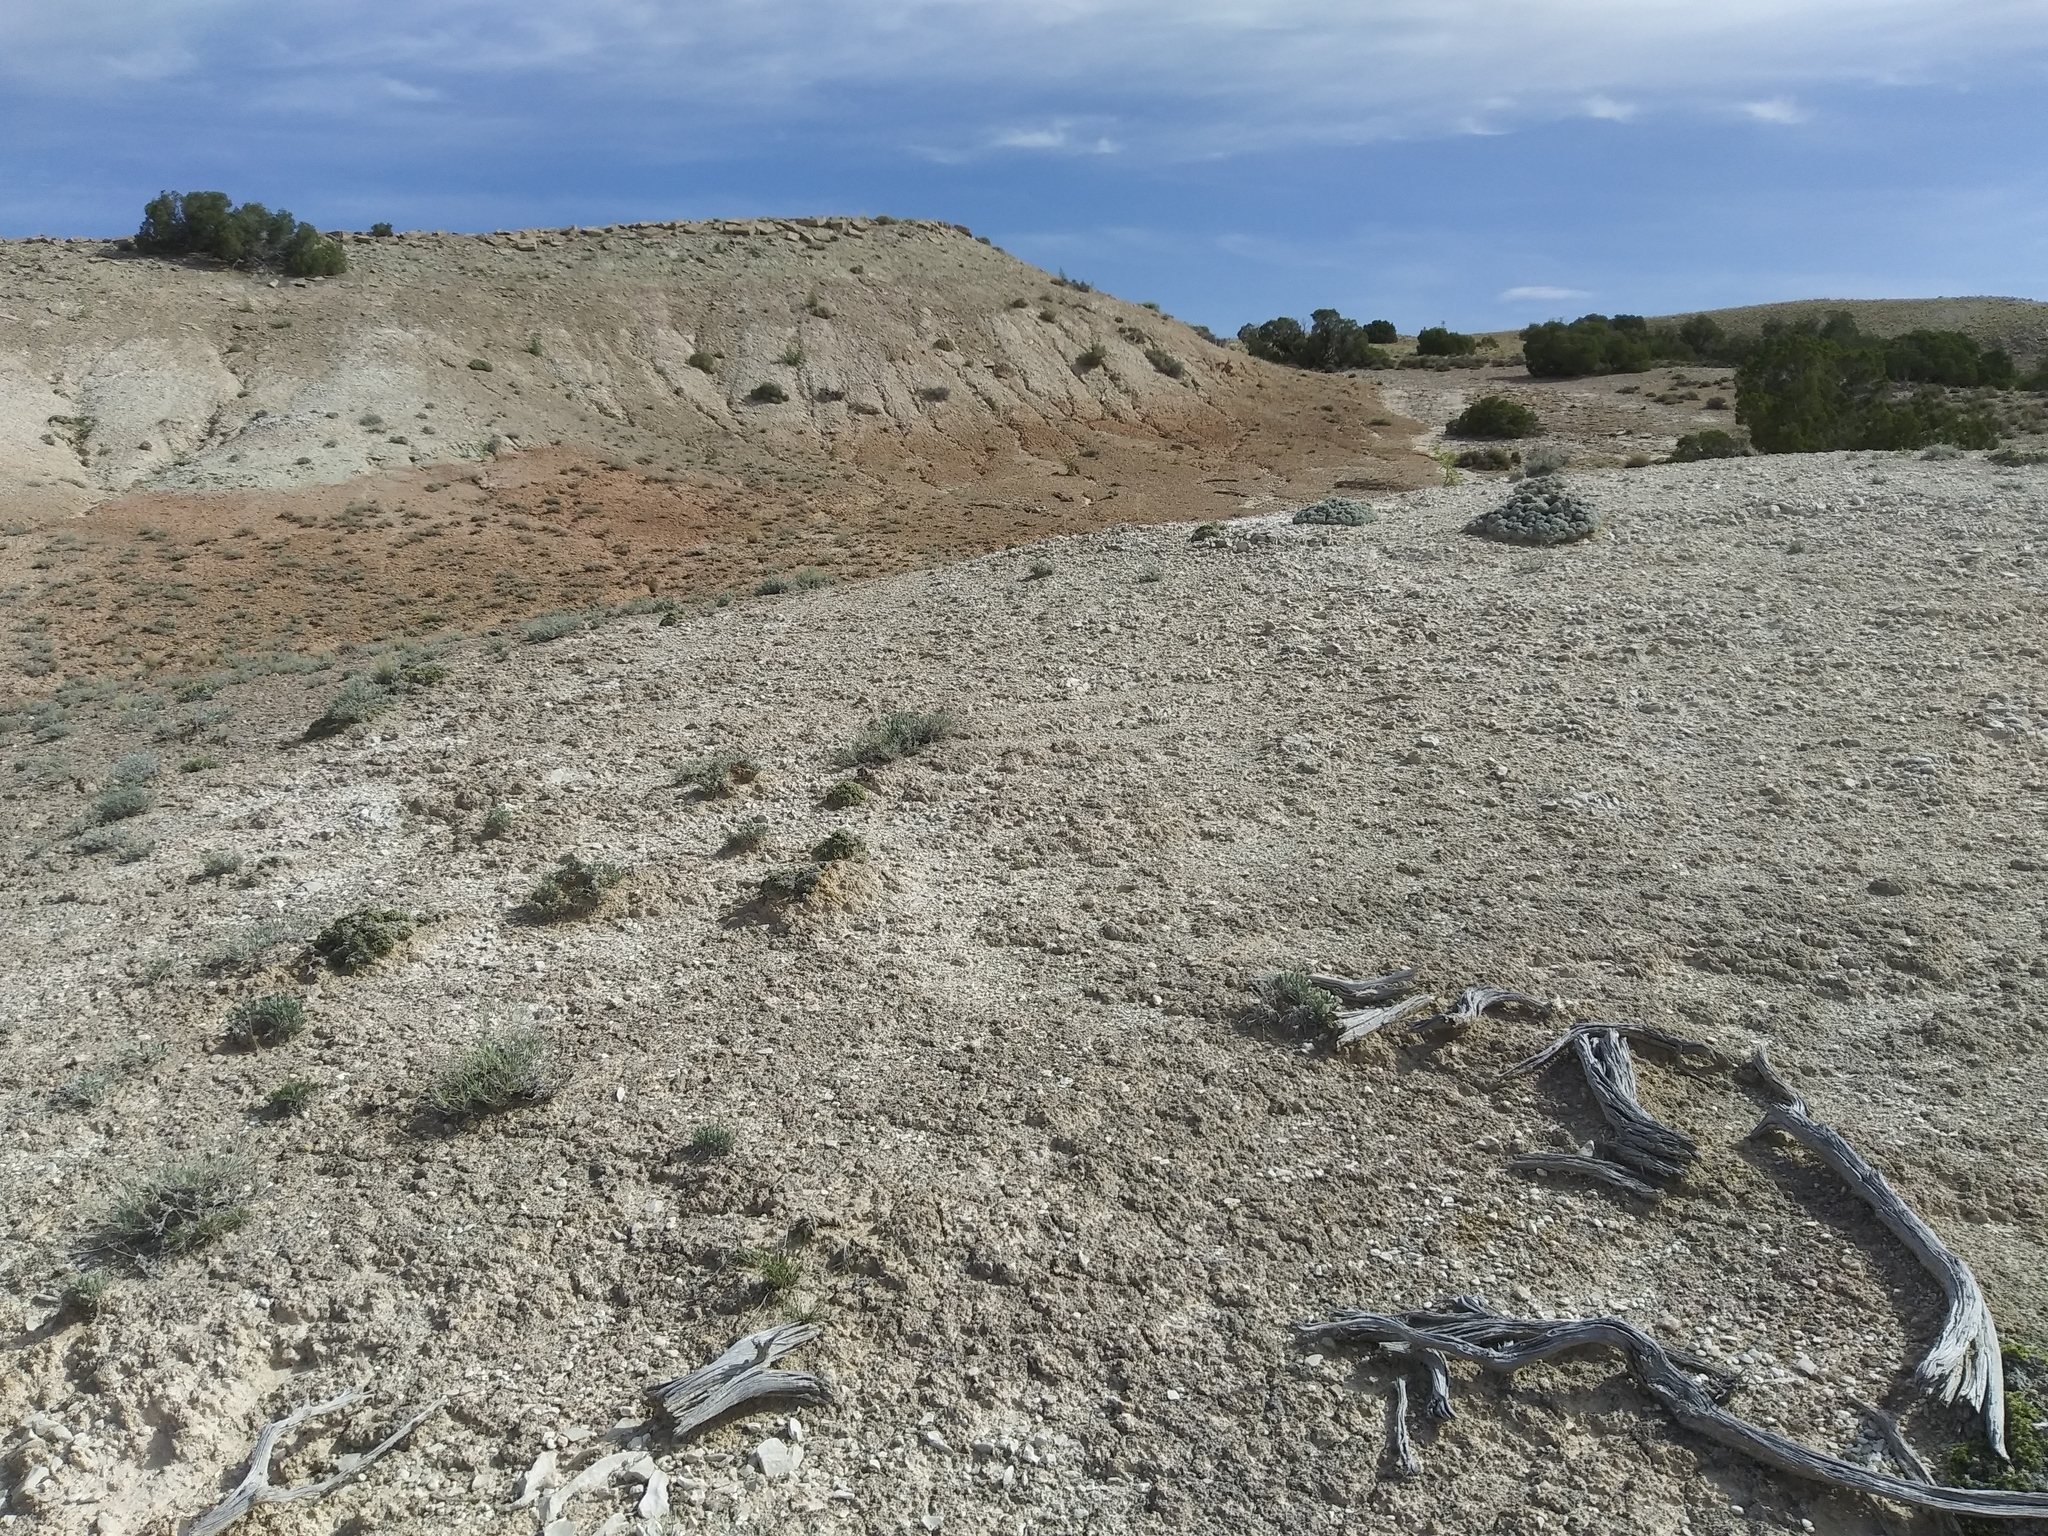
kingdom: Plantae
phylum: Tracheophyta
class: Magnoliopsida
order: Fabales
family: Fabaceae
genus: Astragalus
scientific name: Astragalus hyalinus
